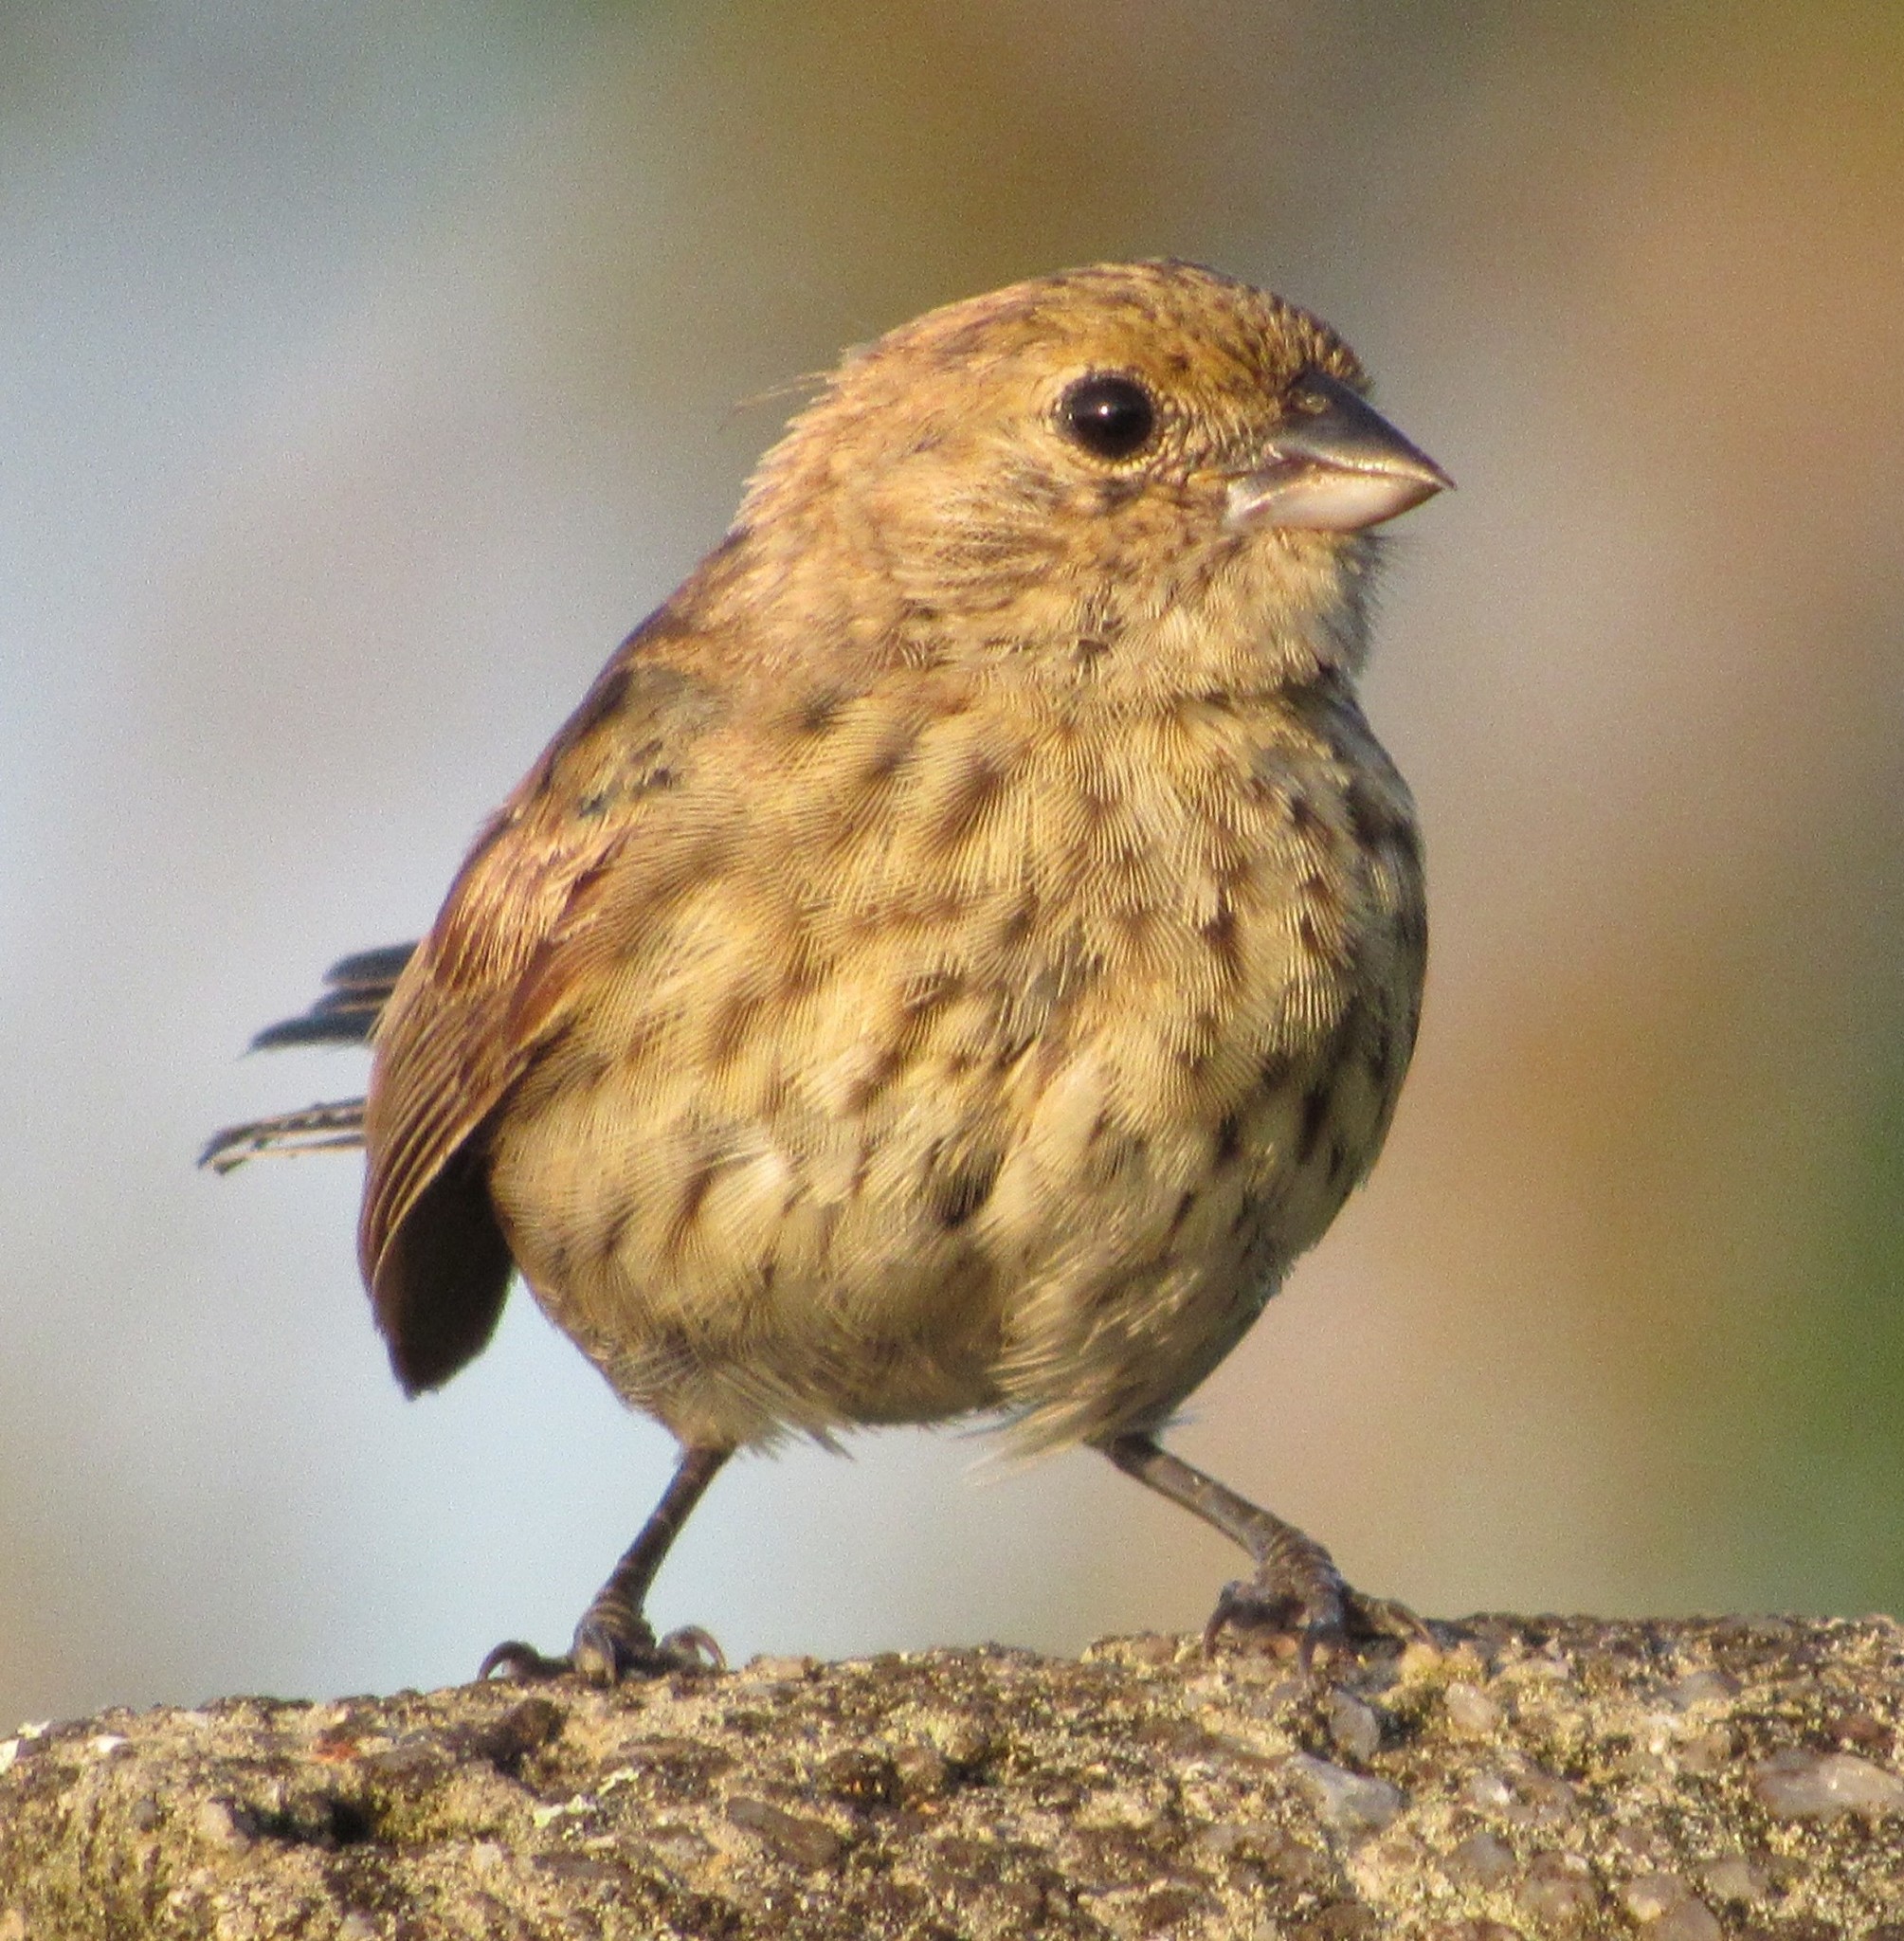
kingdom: Animalia
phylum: Chordata
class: Aves
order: Passeriformes
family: Thraupidae
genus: Volatinia
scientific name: Volatinia jacarina
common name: Blue-black grassquit
